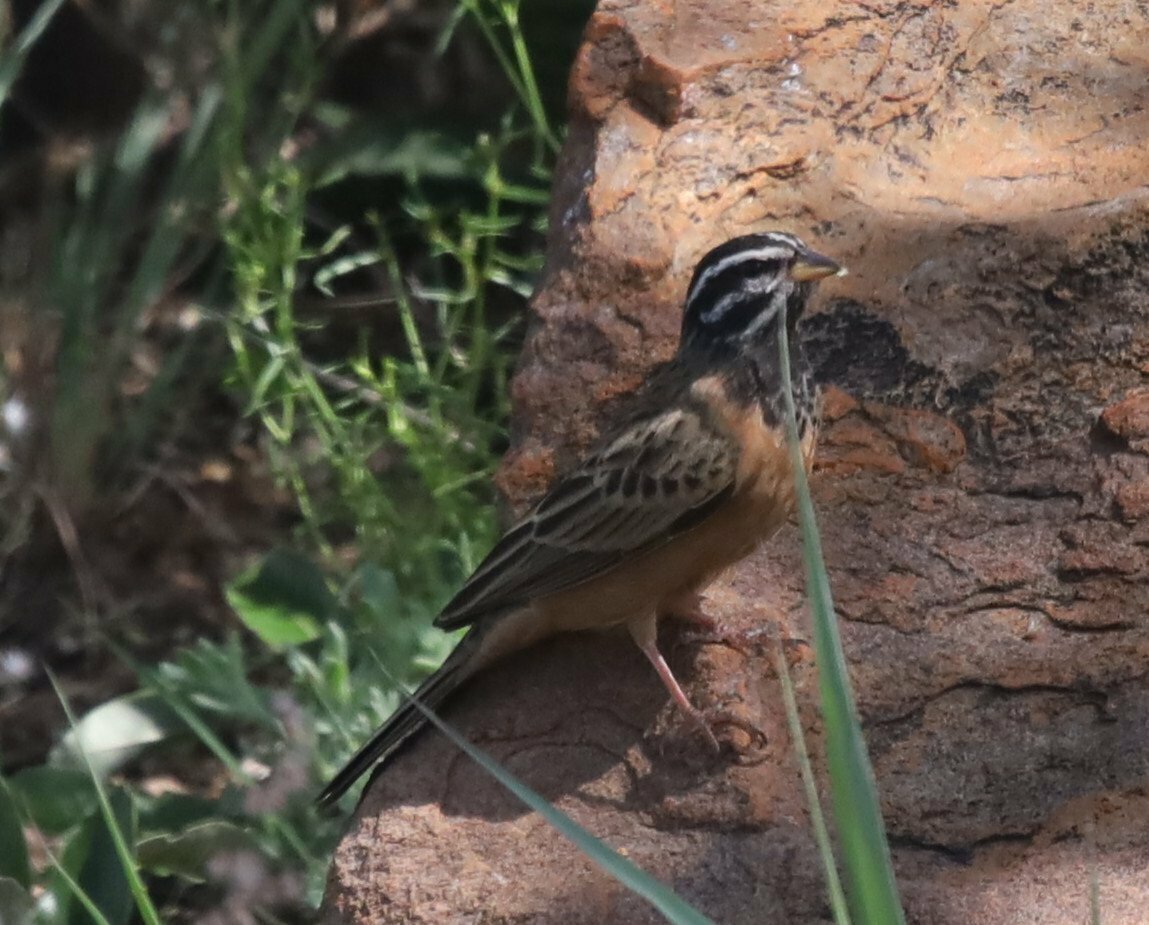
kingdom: Animalia
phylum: Chordata
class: Aves
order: Passeriformes
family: Emberizidae
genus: Emberiza
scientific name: Emberiza tahapisi
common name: Cinnamon-breasted bunting
